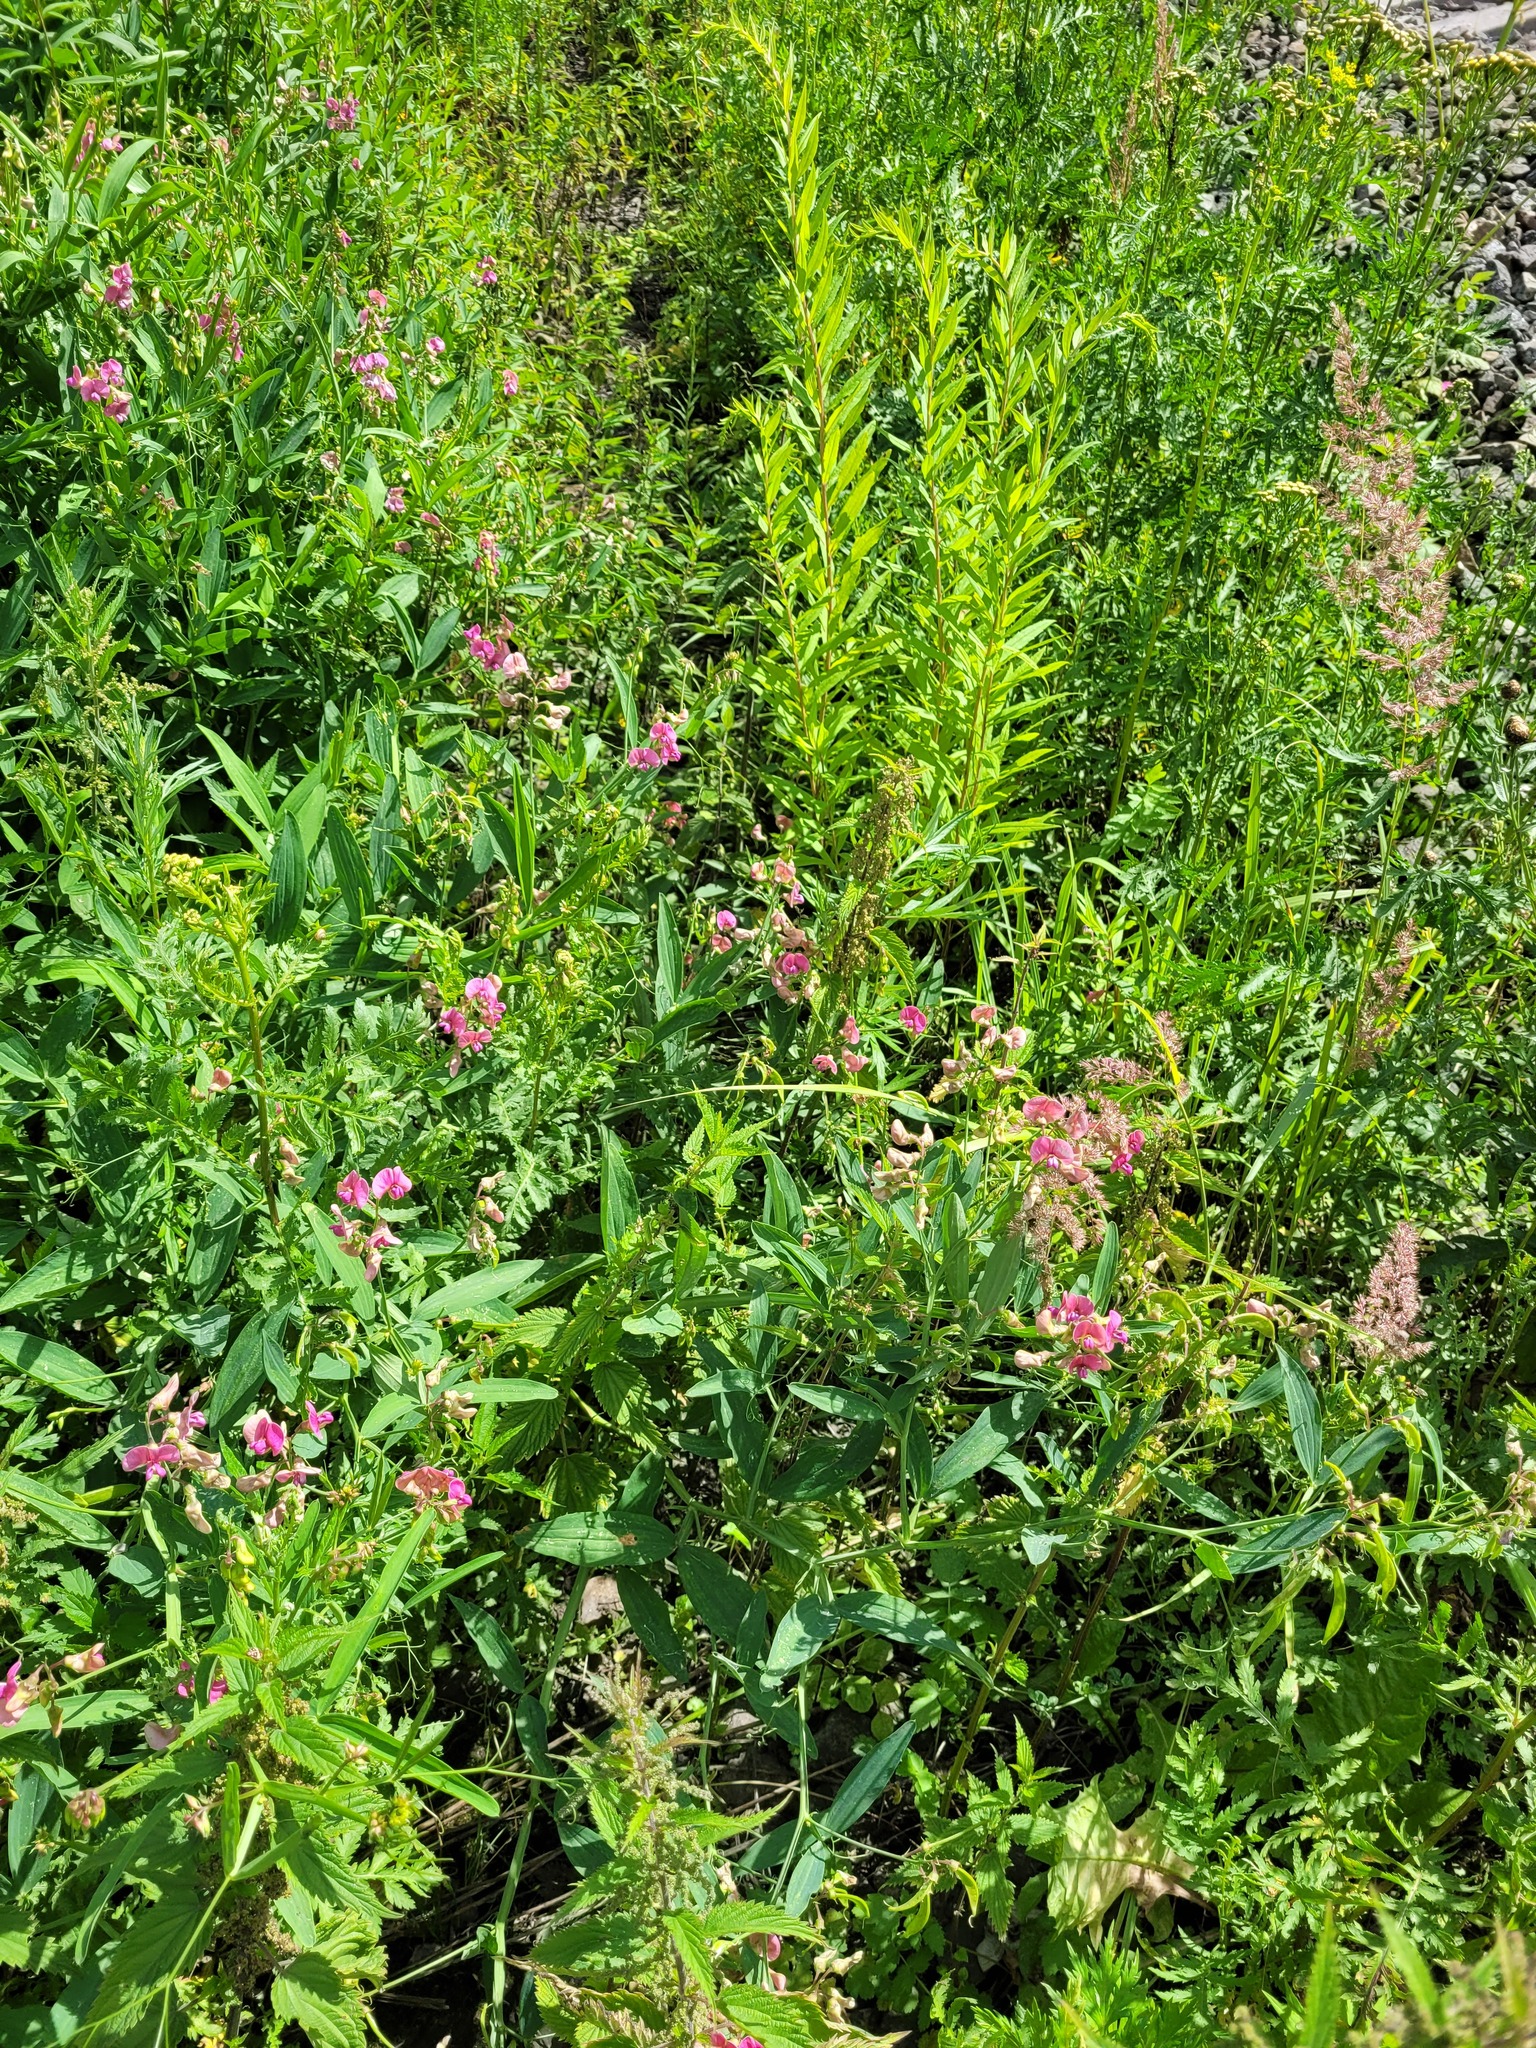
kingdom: Plantae
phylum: Tracheophyta
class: Magnoliopsida
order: Fabales
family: Fabaceae
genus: Lathyrus
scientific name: Lathyrus sylvestris
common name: Flat pea
